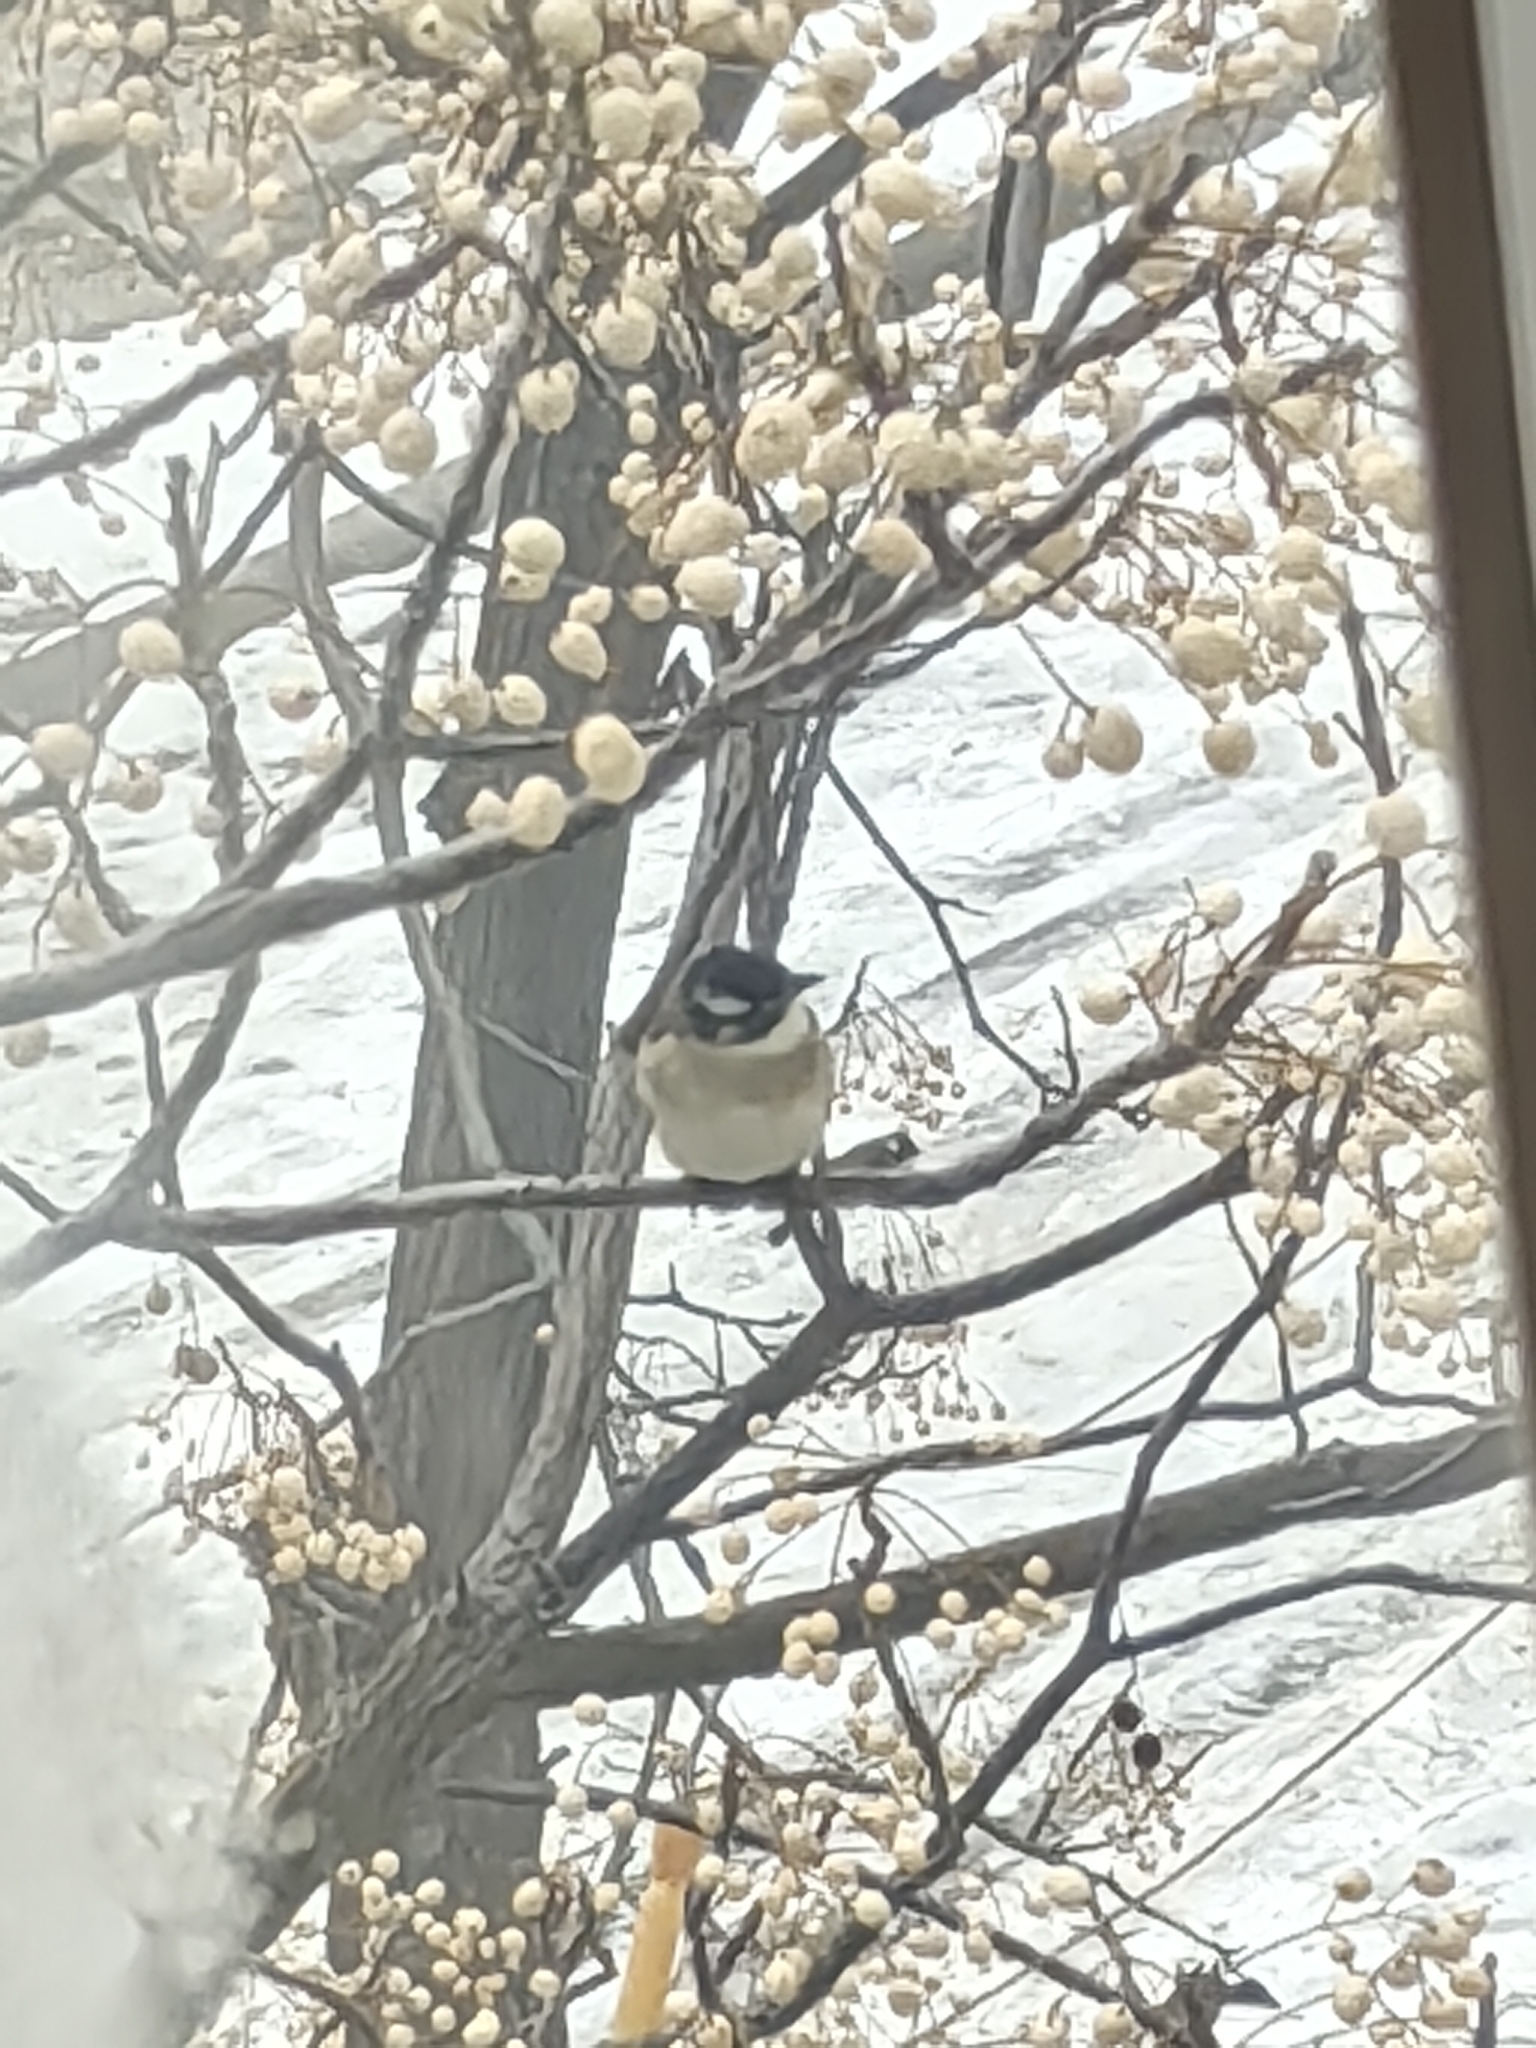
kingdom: Animalia
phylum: Chordata
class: Aves
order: Passeriformes
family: Pycnonotidae
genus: Pycnonotus
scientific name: Pycnonotus sinensis
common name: Light-vented bulbul
